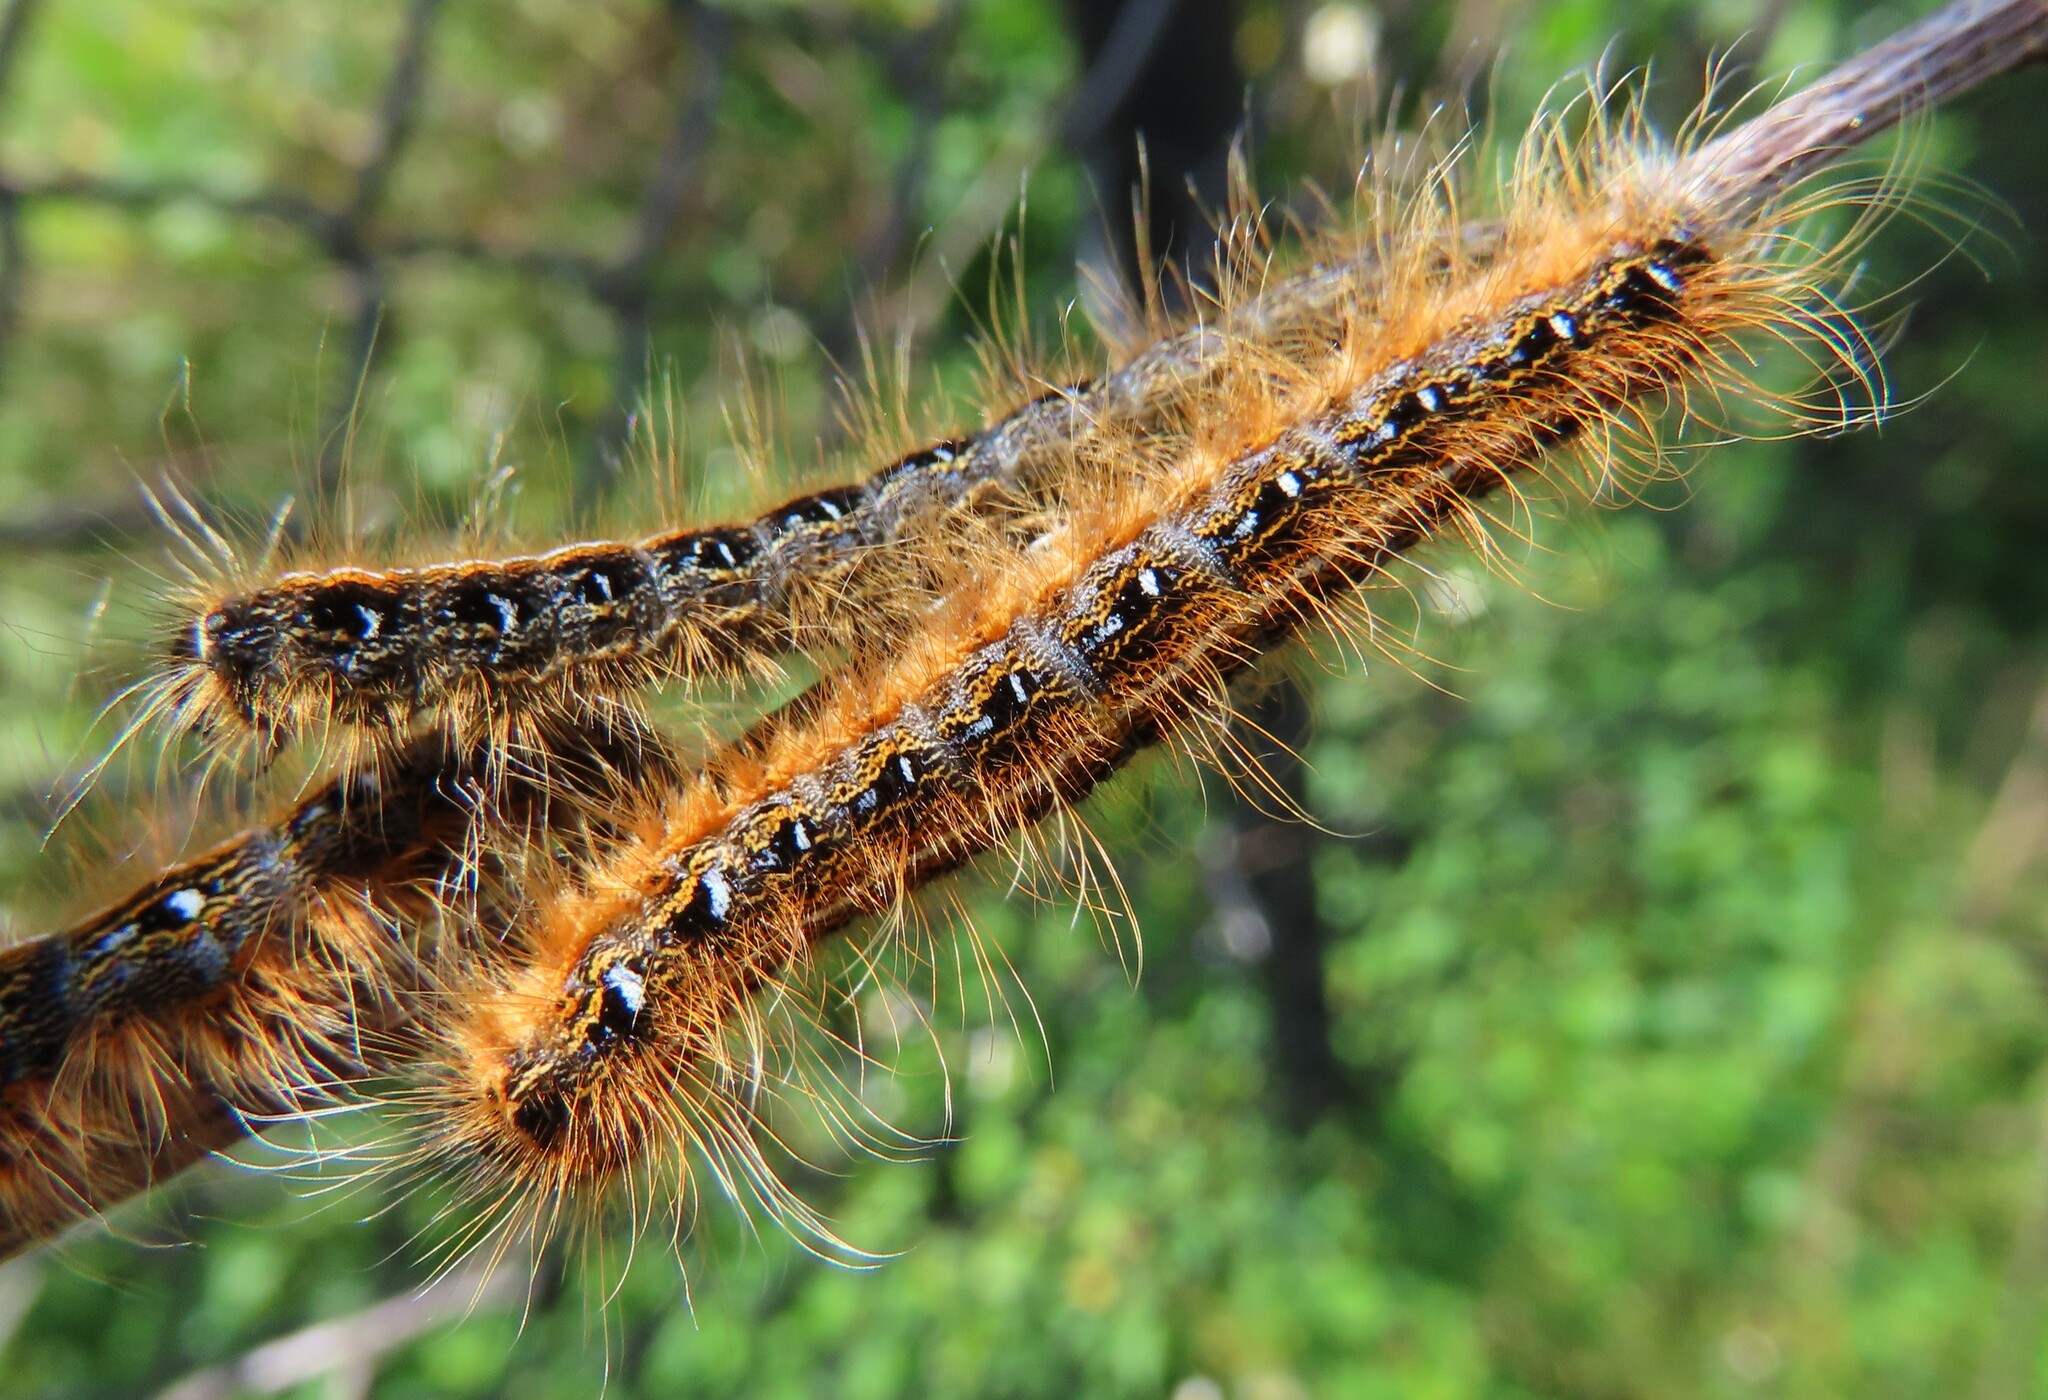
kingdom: Animalia
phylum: Arthropoda
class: Insecta
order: Lepidoptera
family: Lasiocampidae
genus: Malacosoma
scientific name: Malacosoma americana
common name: Eastern tent caterpillar moth
